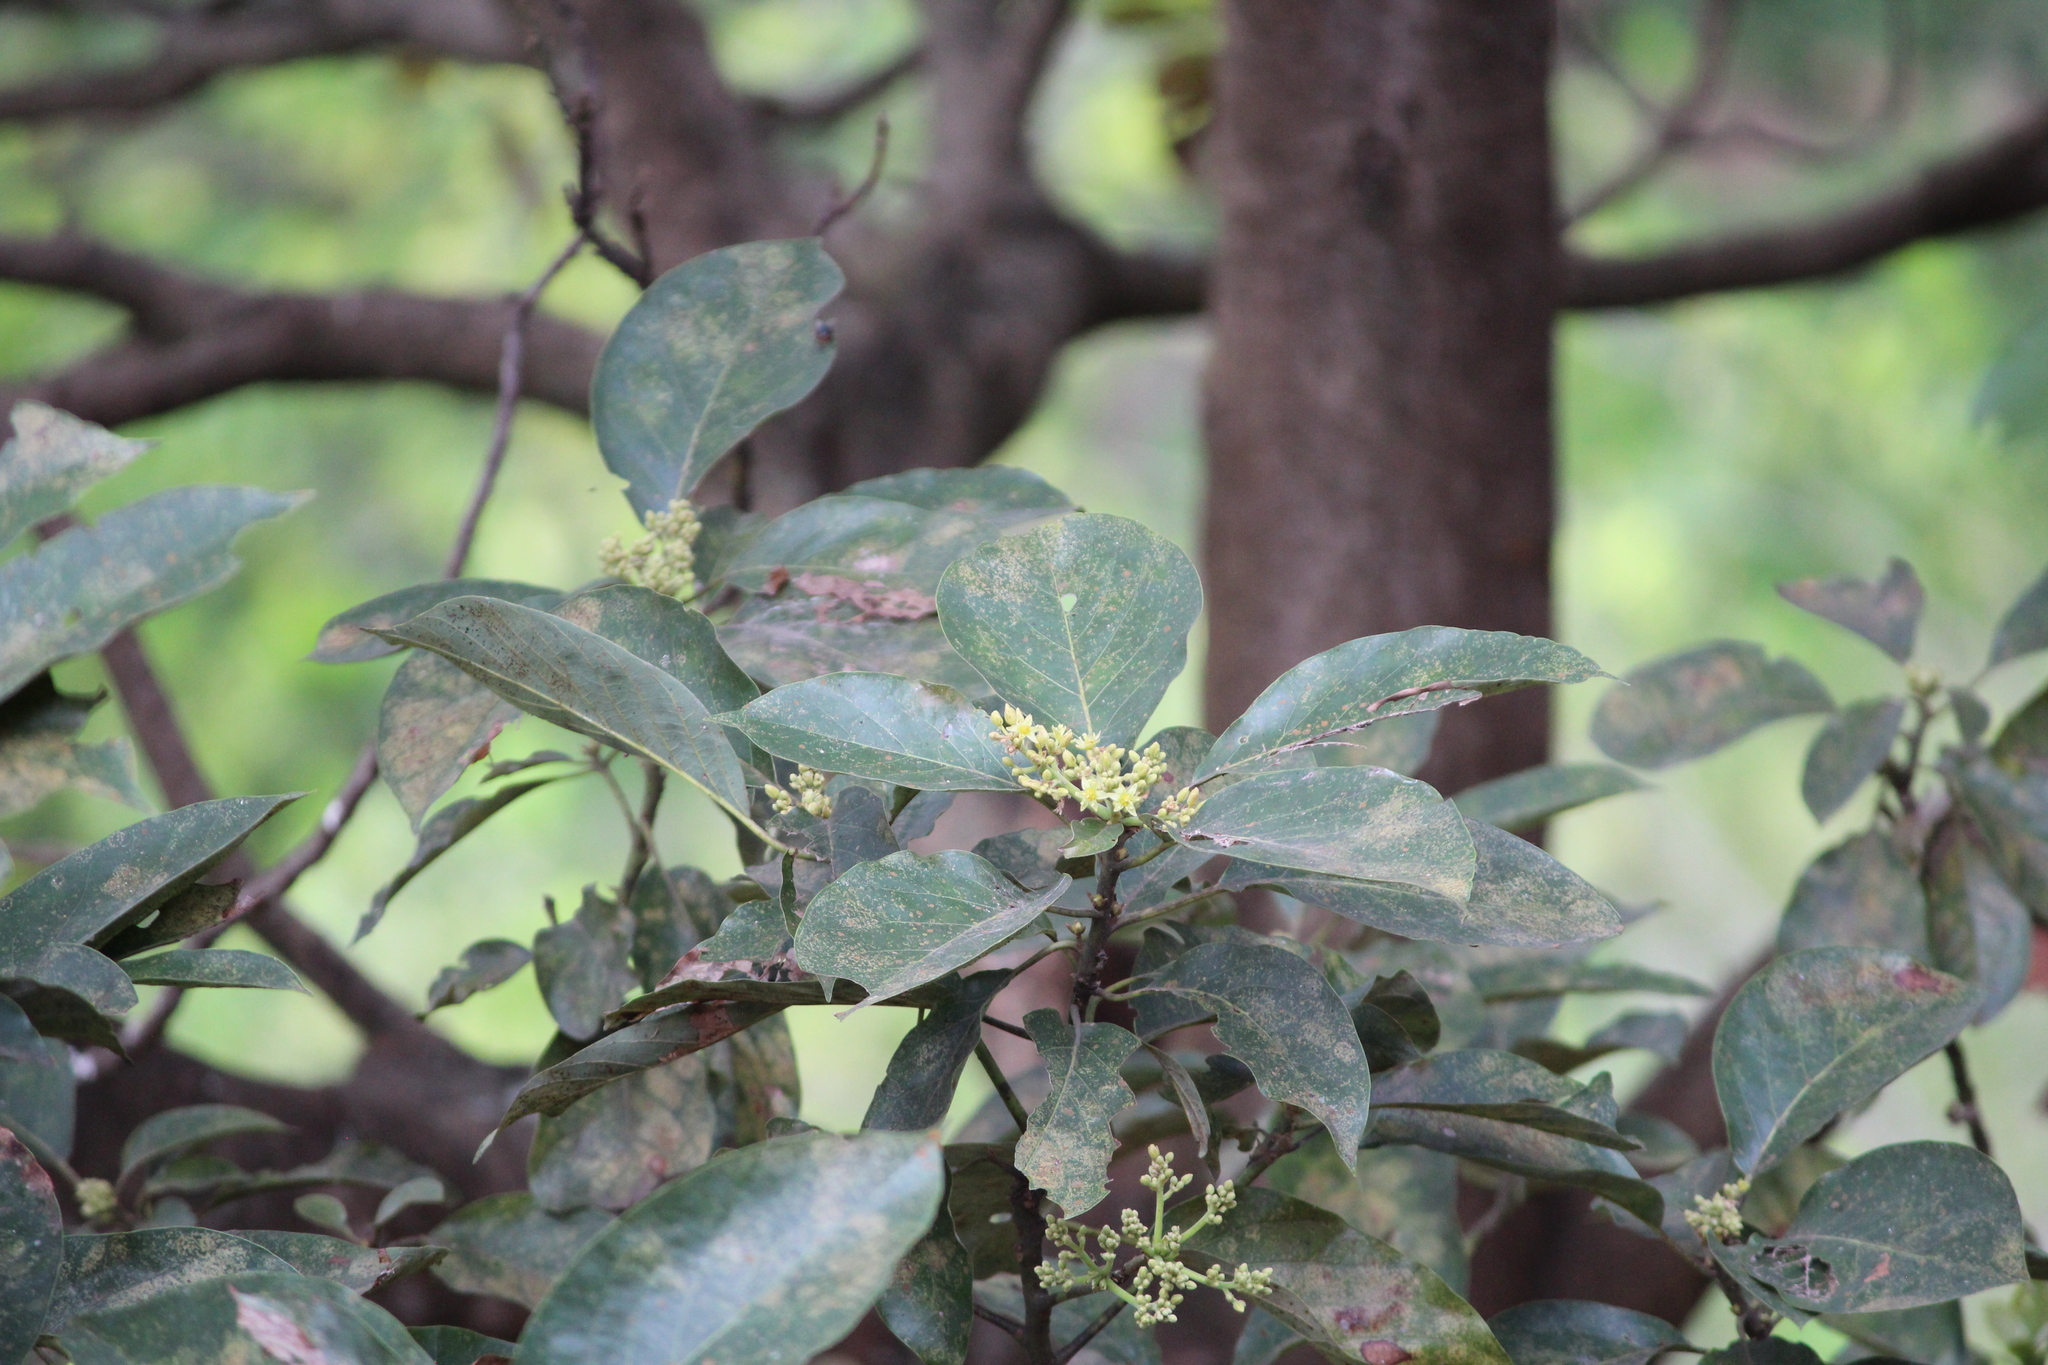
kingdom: Plantae
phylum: Tracheophyta
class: Magnoliopsida
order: Laurales
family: Lauraceae
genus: Persea
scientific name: Persea americana
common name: Avocado
